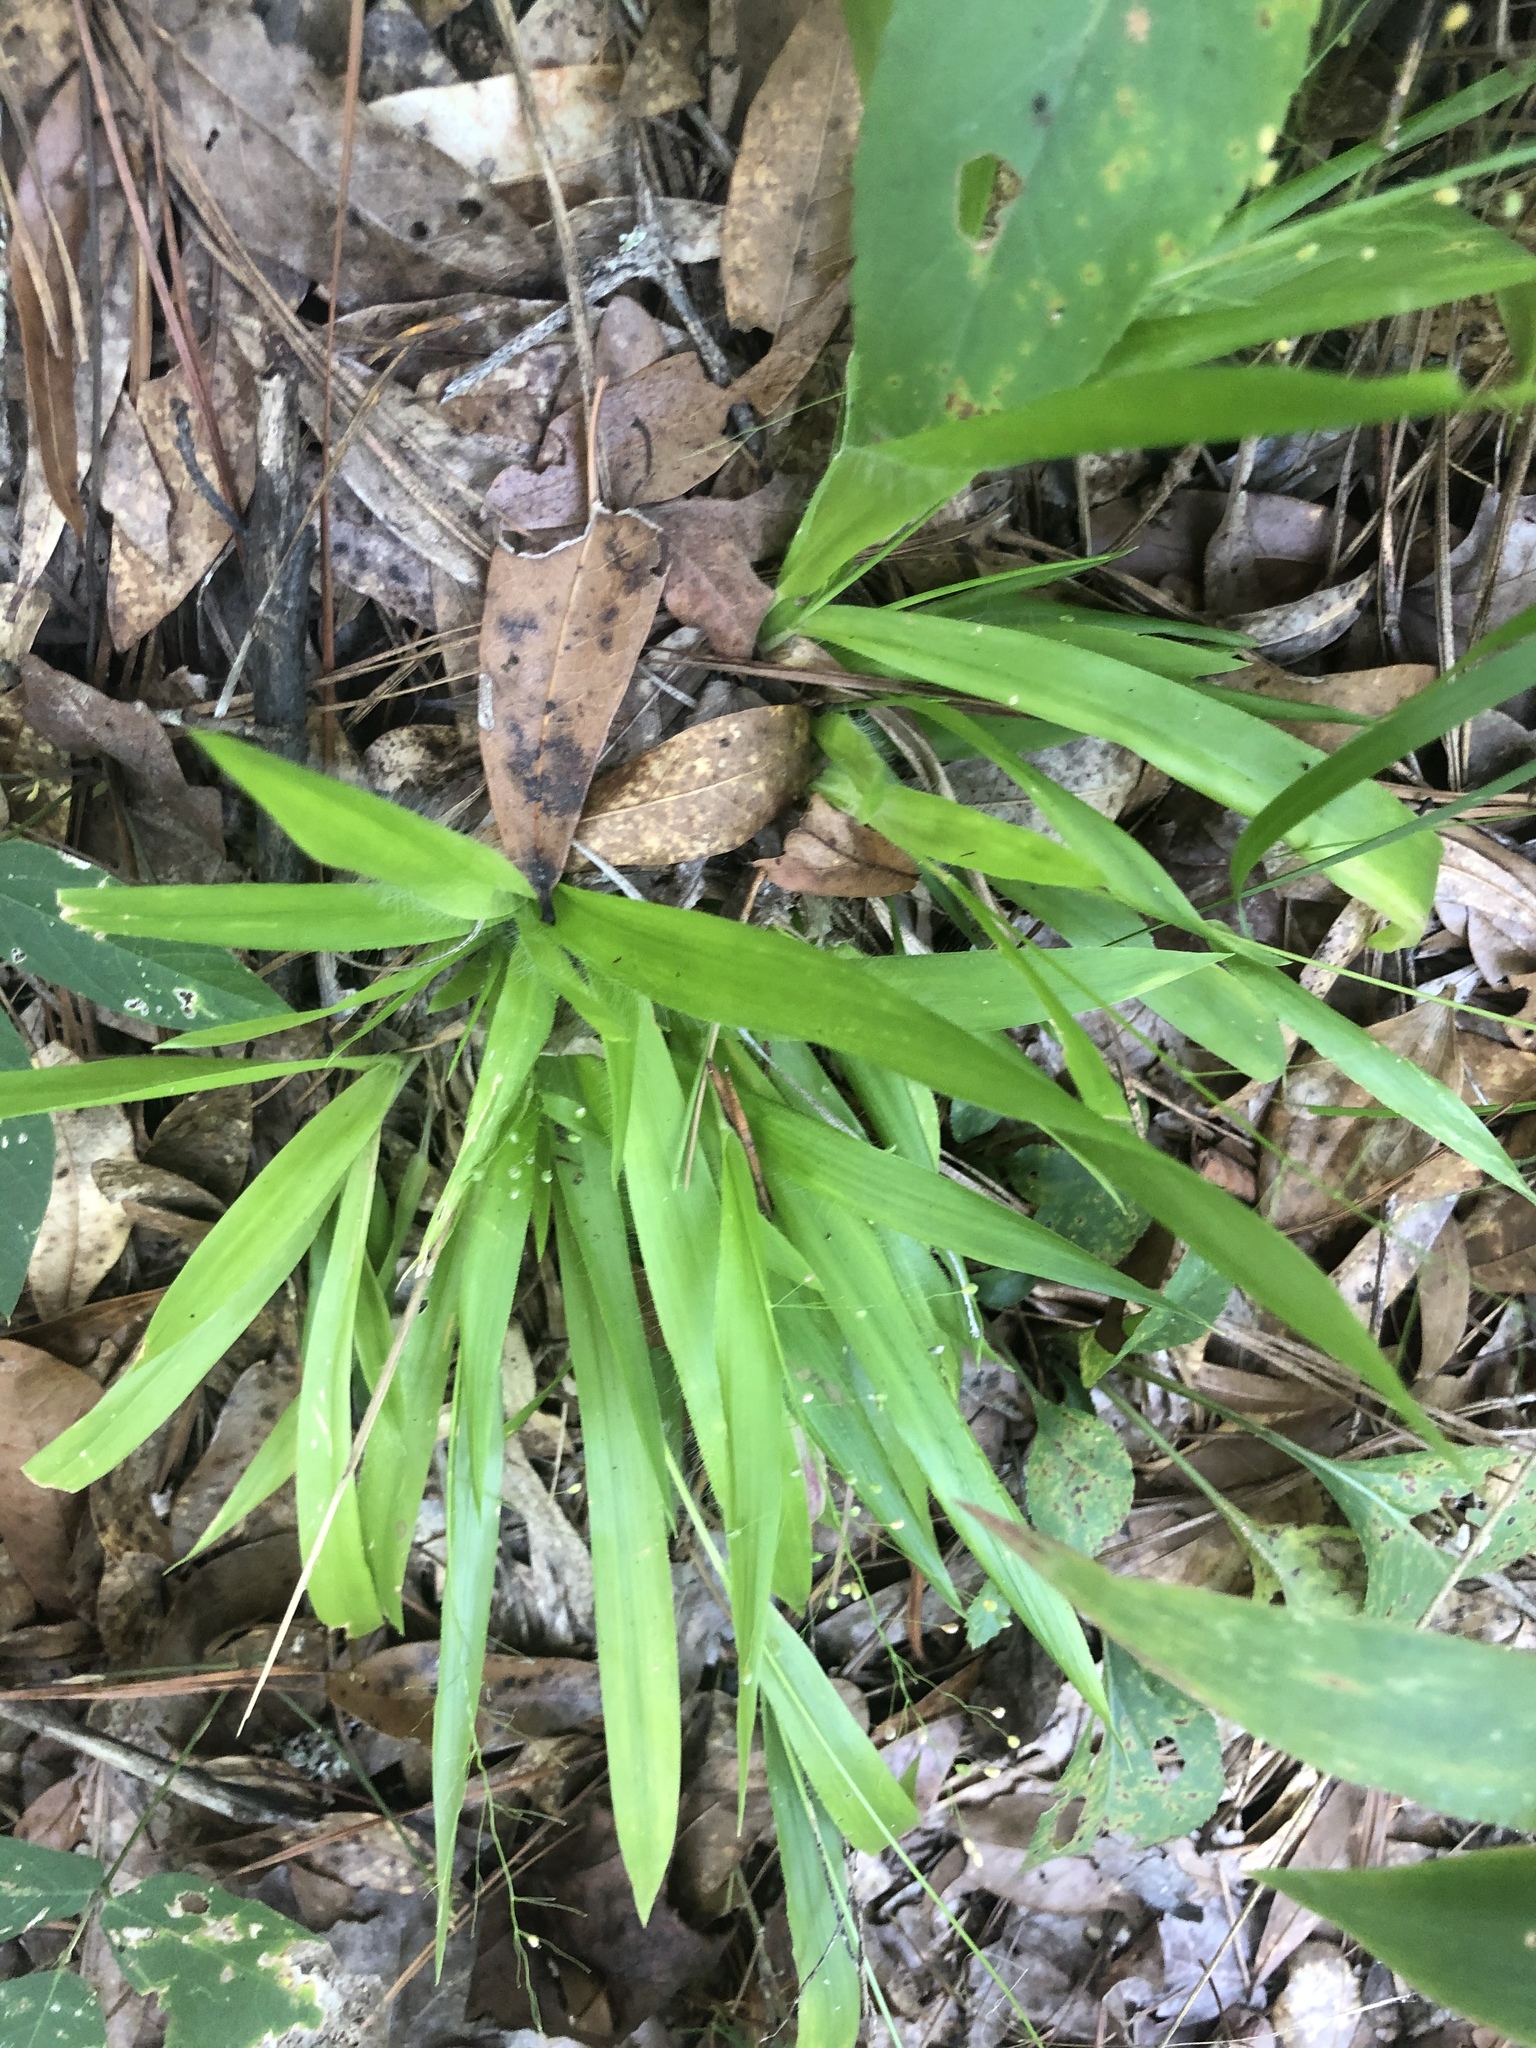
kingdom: Plantae
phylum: Tracheophyta
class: Liliopsida
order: Poales
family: Poaceae
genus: Dichanthelium
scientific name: Dichanthelium laxiflorum
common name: Soft-tuft panic grass
